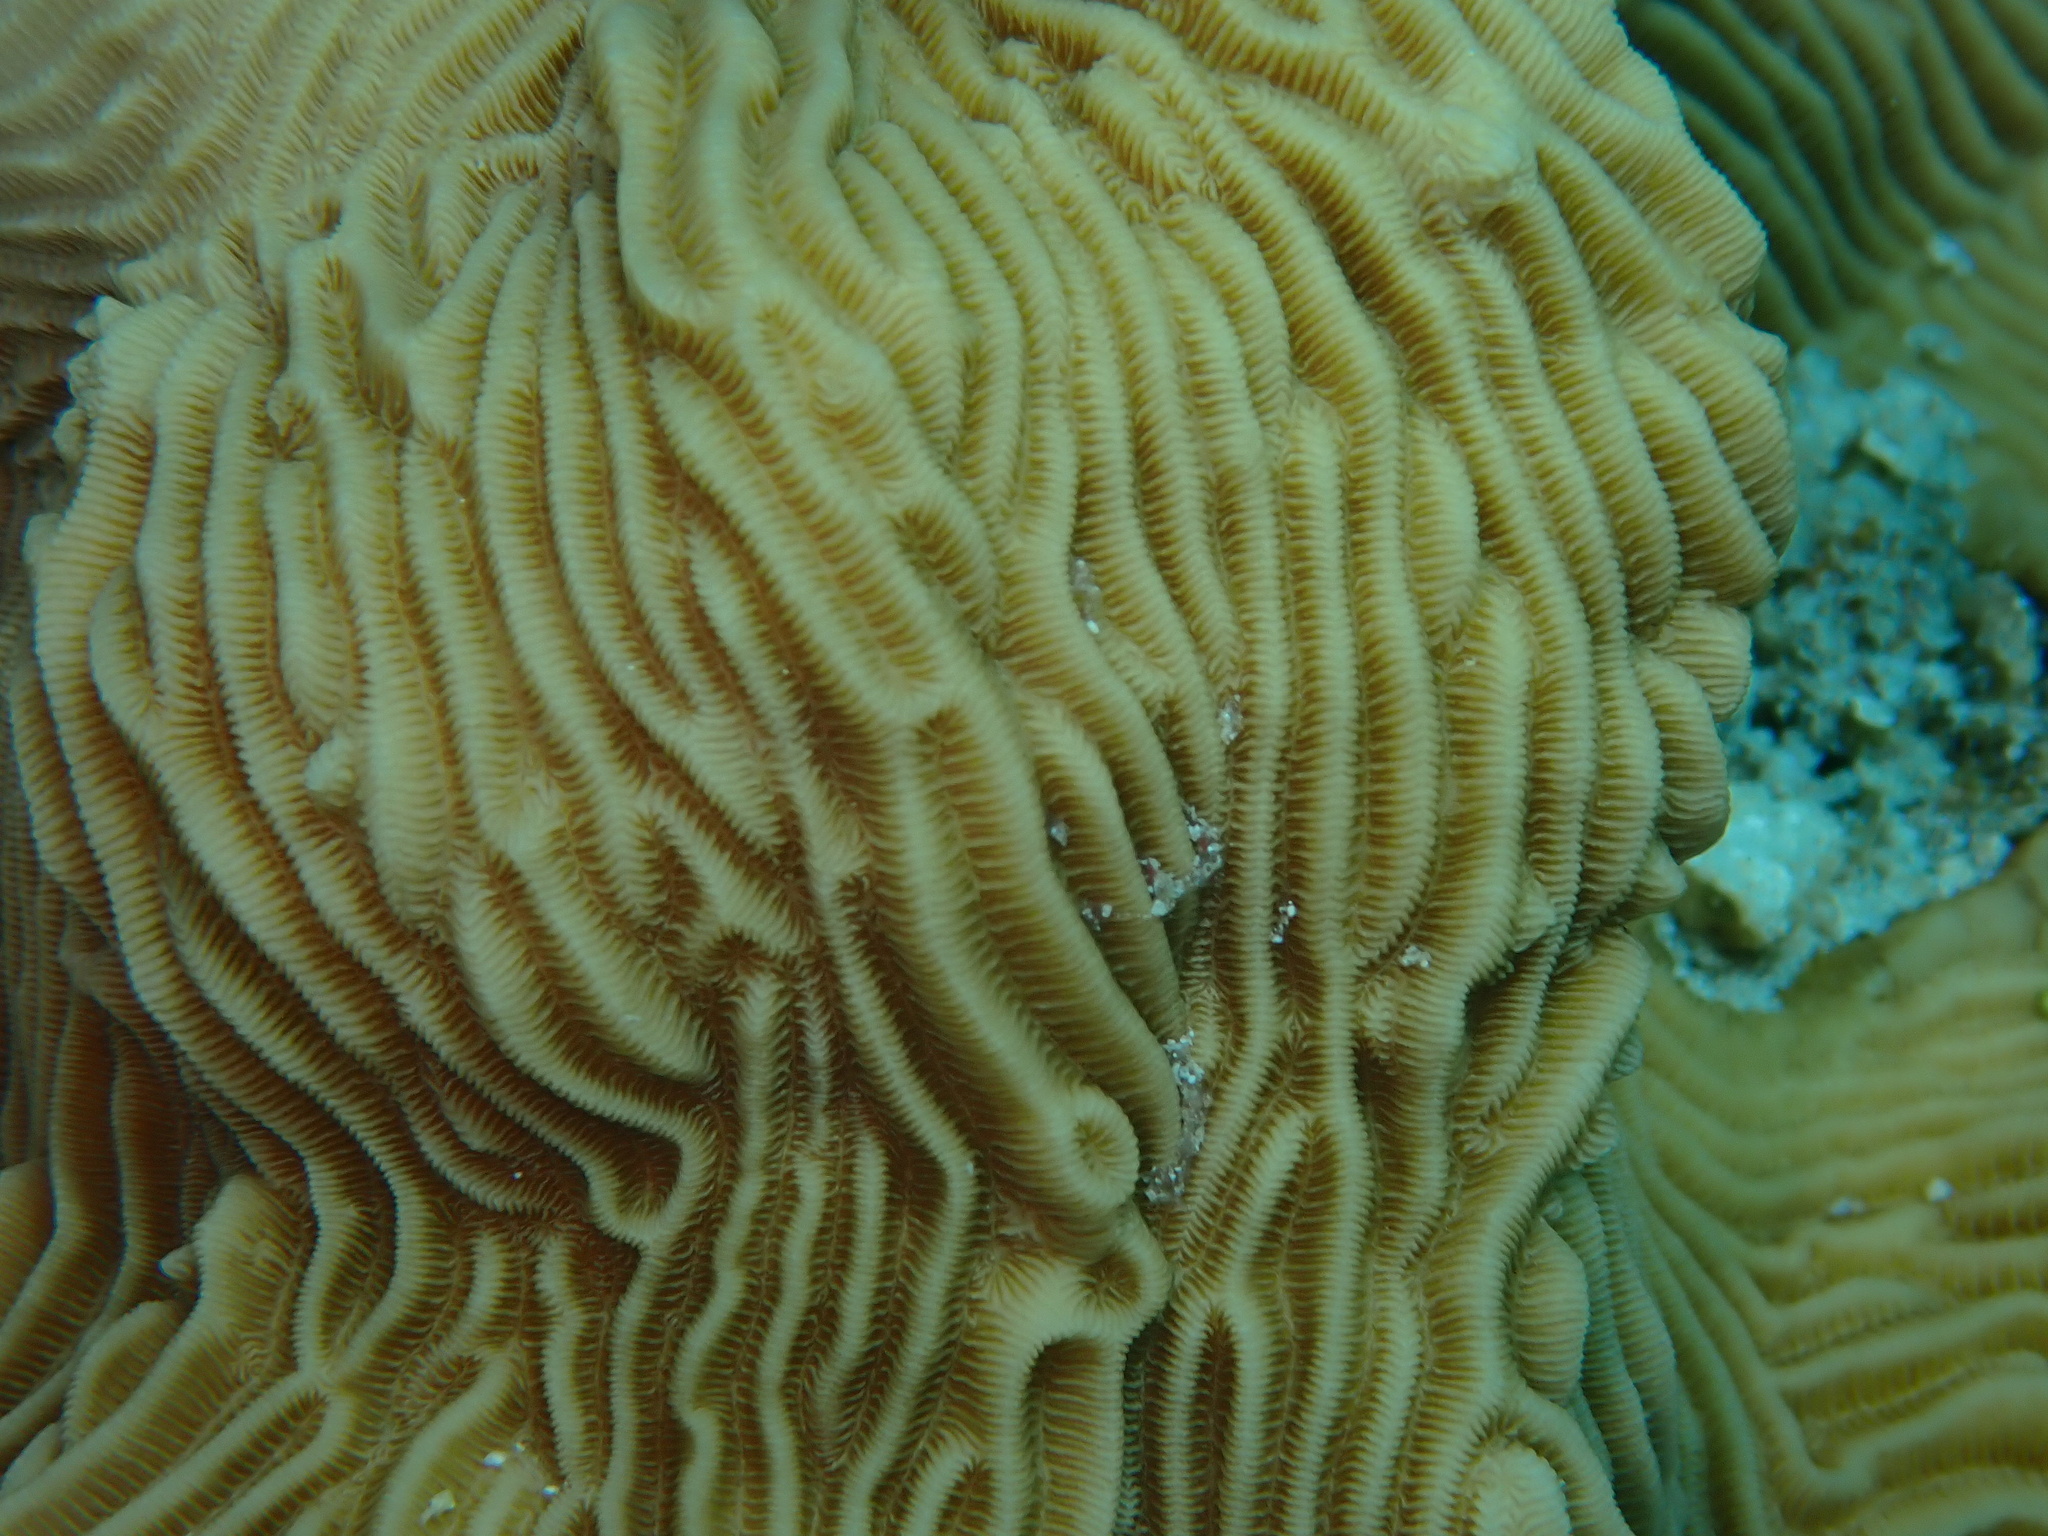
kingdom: Animalia
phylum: Cnidaria
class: Anthozoa
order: Scleractinia
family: Pachyseridae
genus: Pachyseris
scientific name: Pachyseris speciosa
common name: Serpent coral
